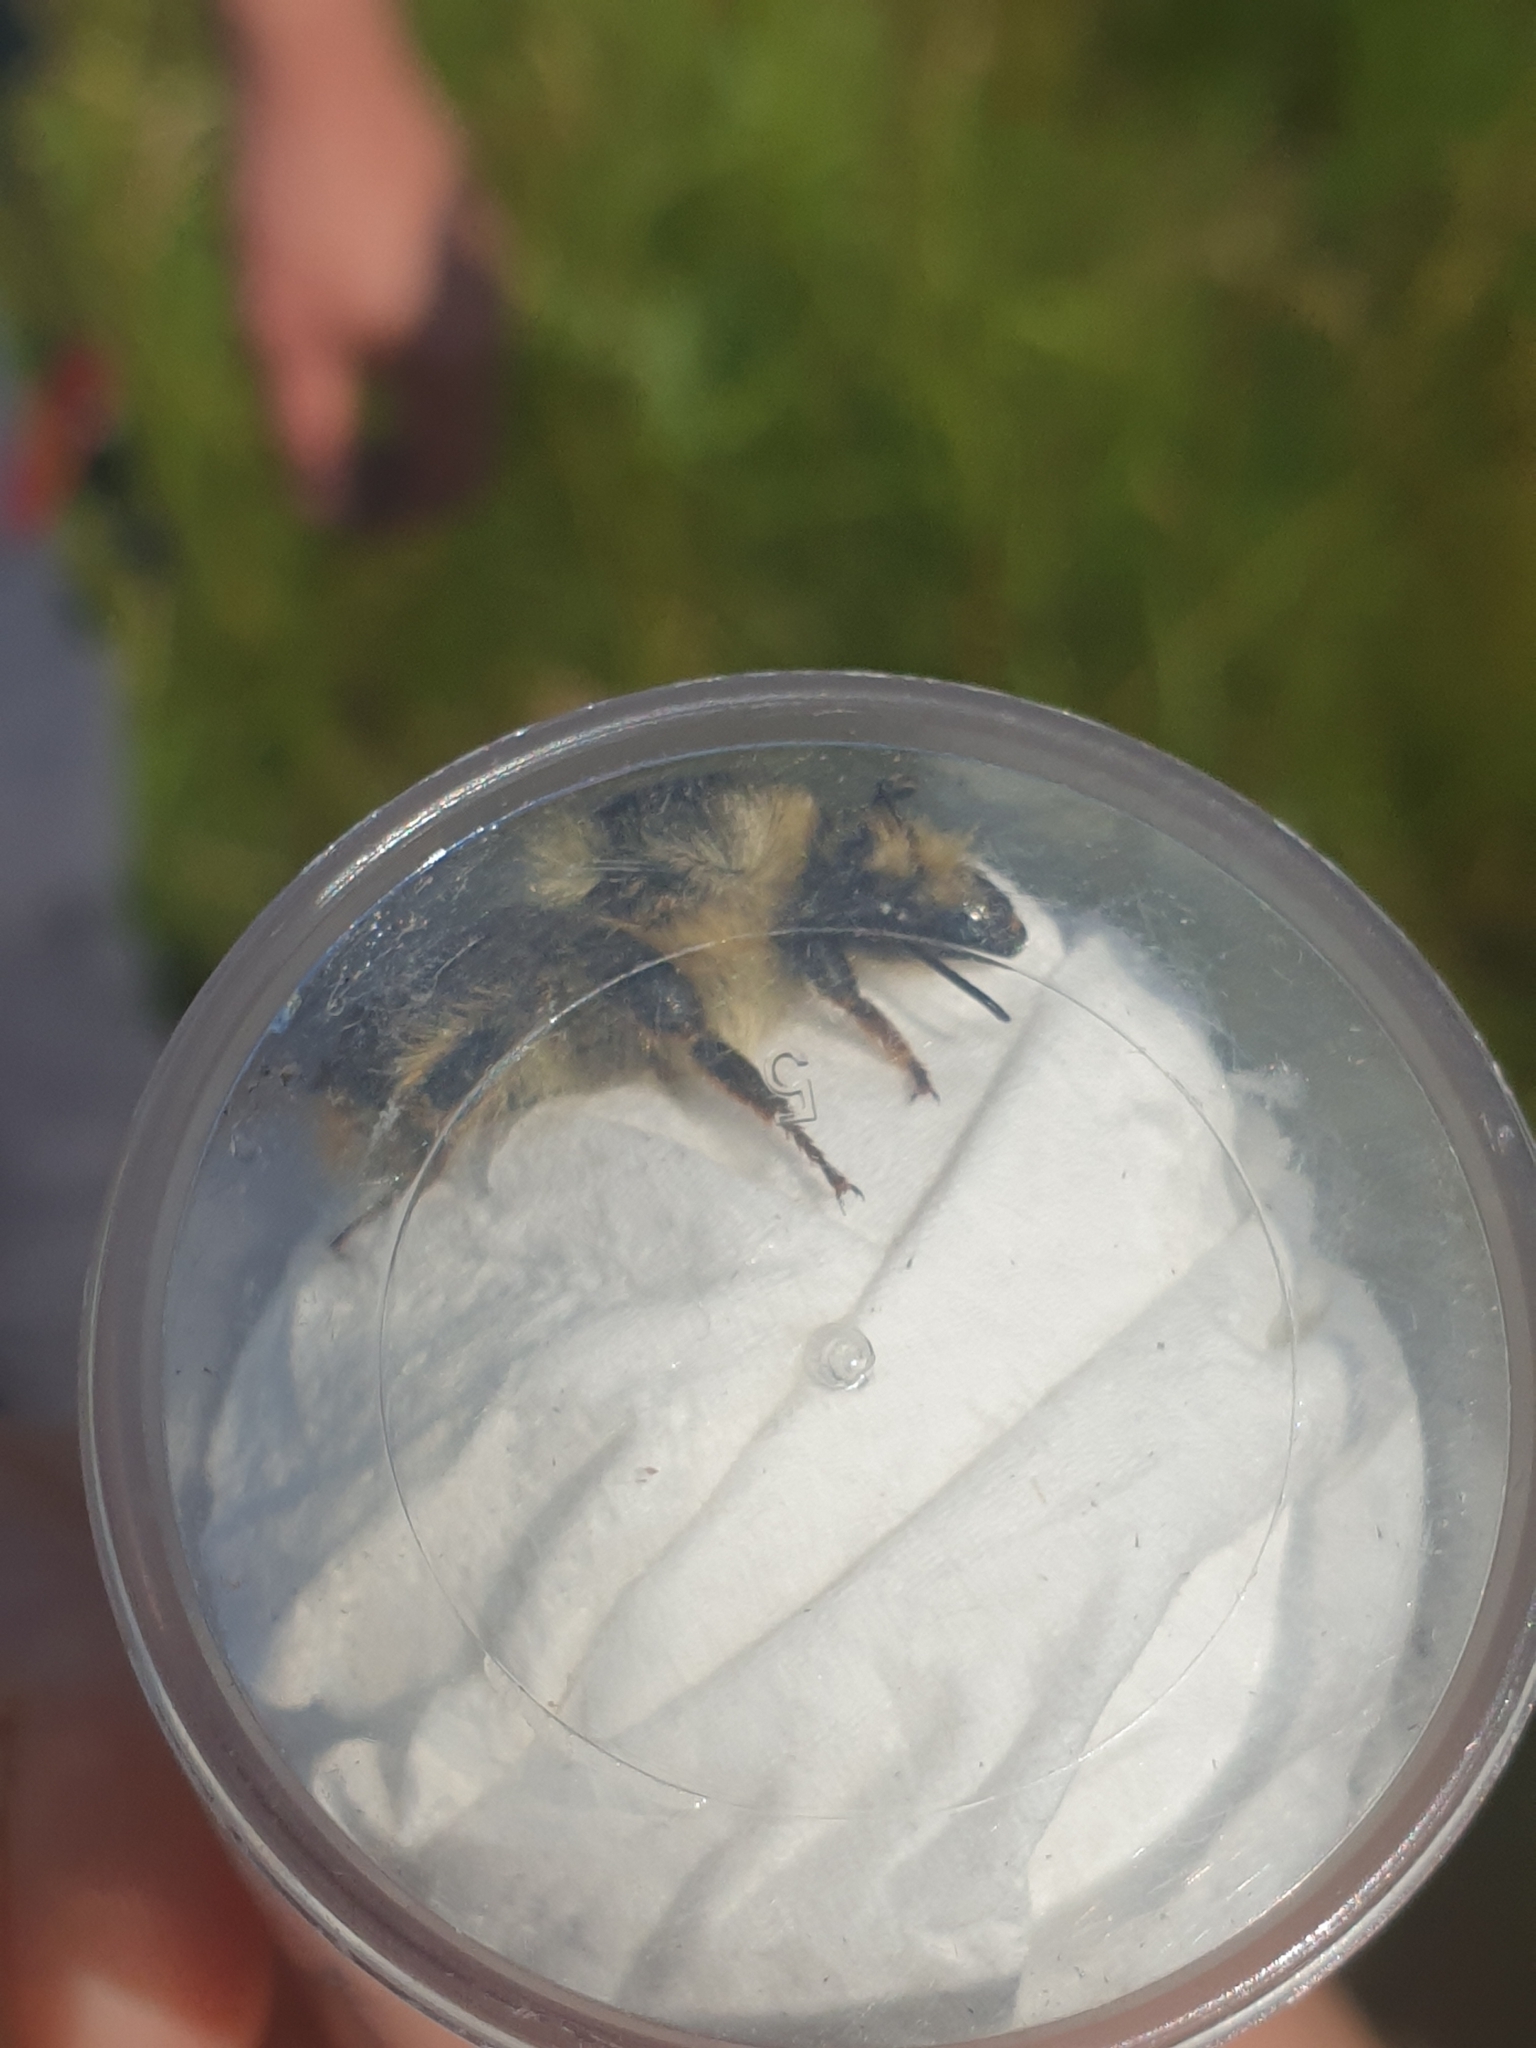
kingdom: Animalia
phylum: Arthropoda
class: Insecta
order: Hymenoptera
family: Apidae
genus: Bombus
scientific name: Bombus sylvarum
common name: Shrill carder bee
